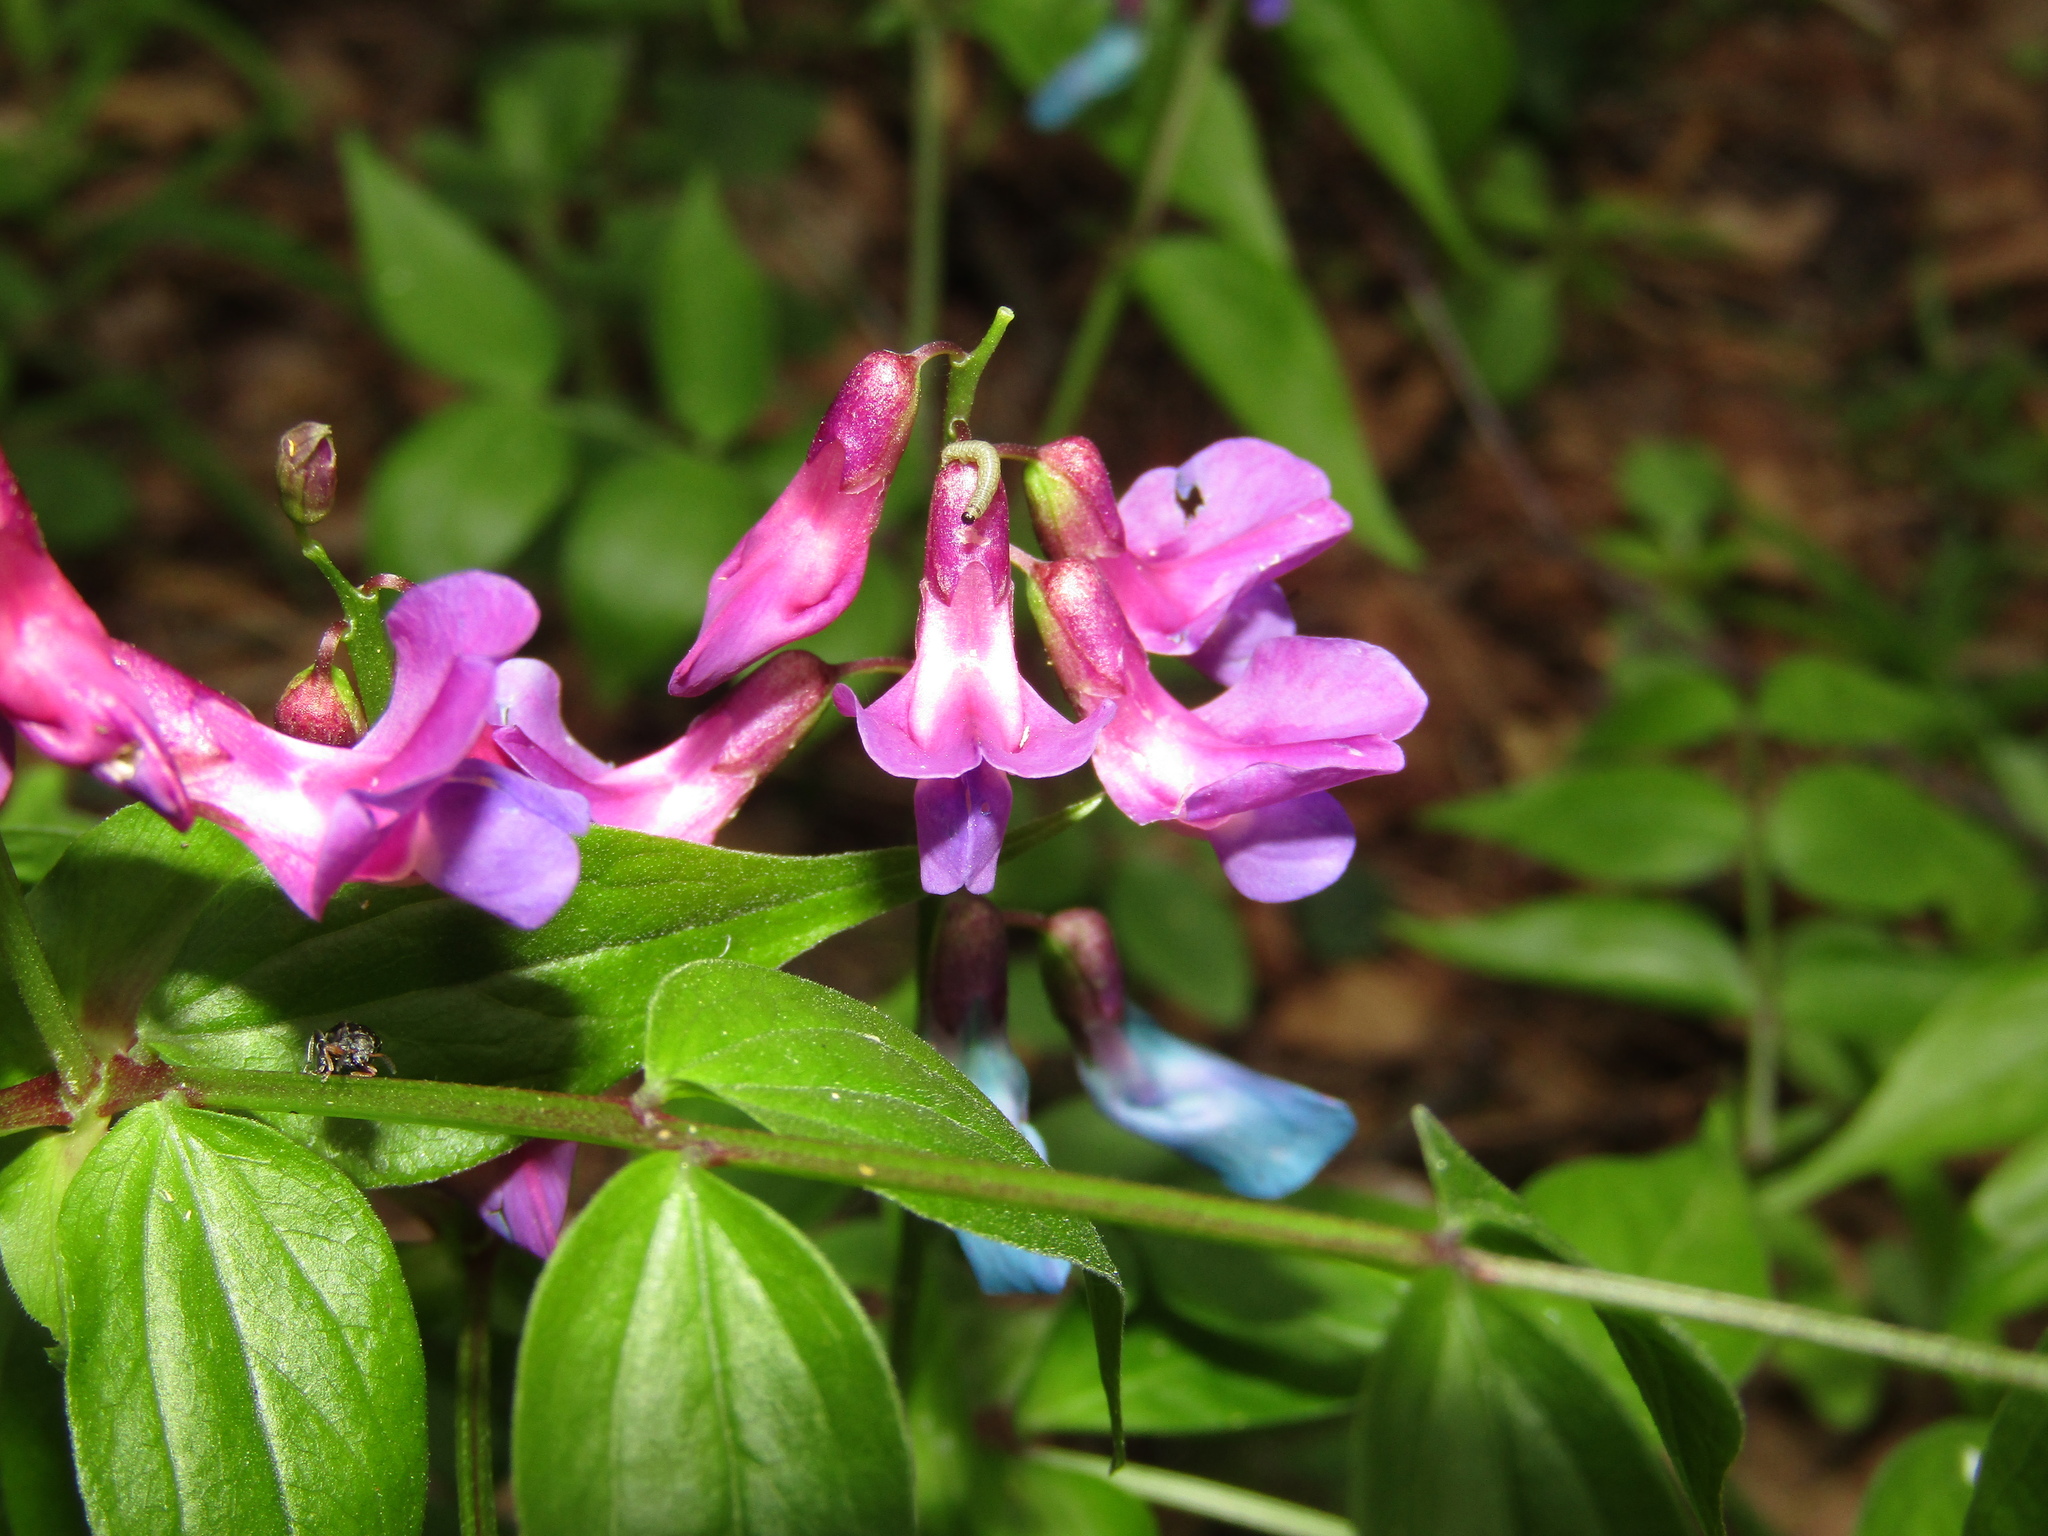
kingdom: Plantae
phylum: Tracheophyta
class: Magnoliopsida
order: Fabales
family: Fabaceae
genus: Lathyrus
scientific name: Lathyrus vernus
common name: Spring pea
